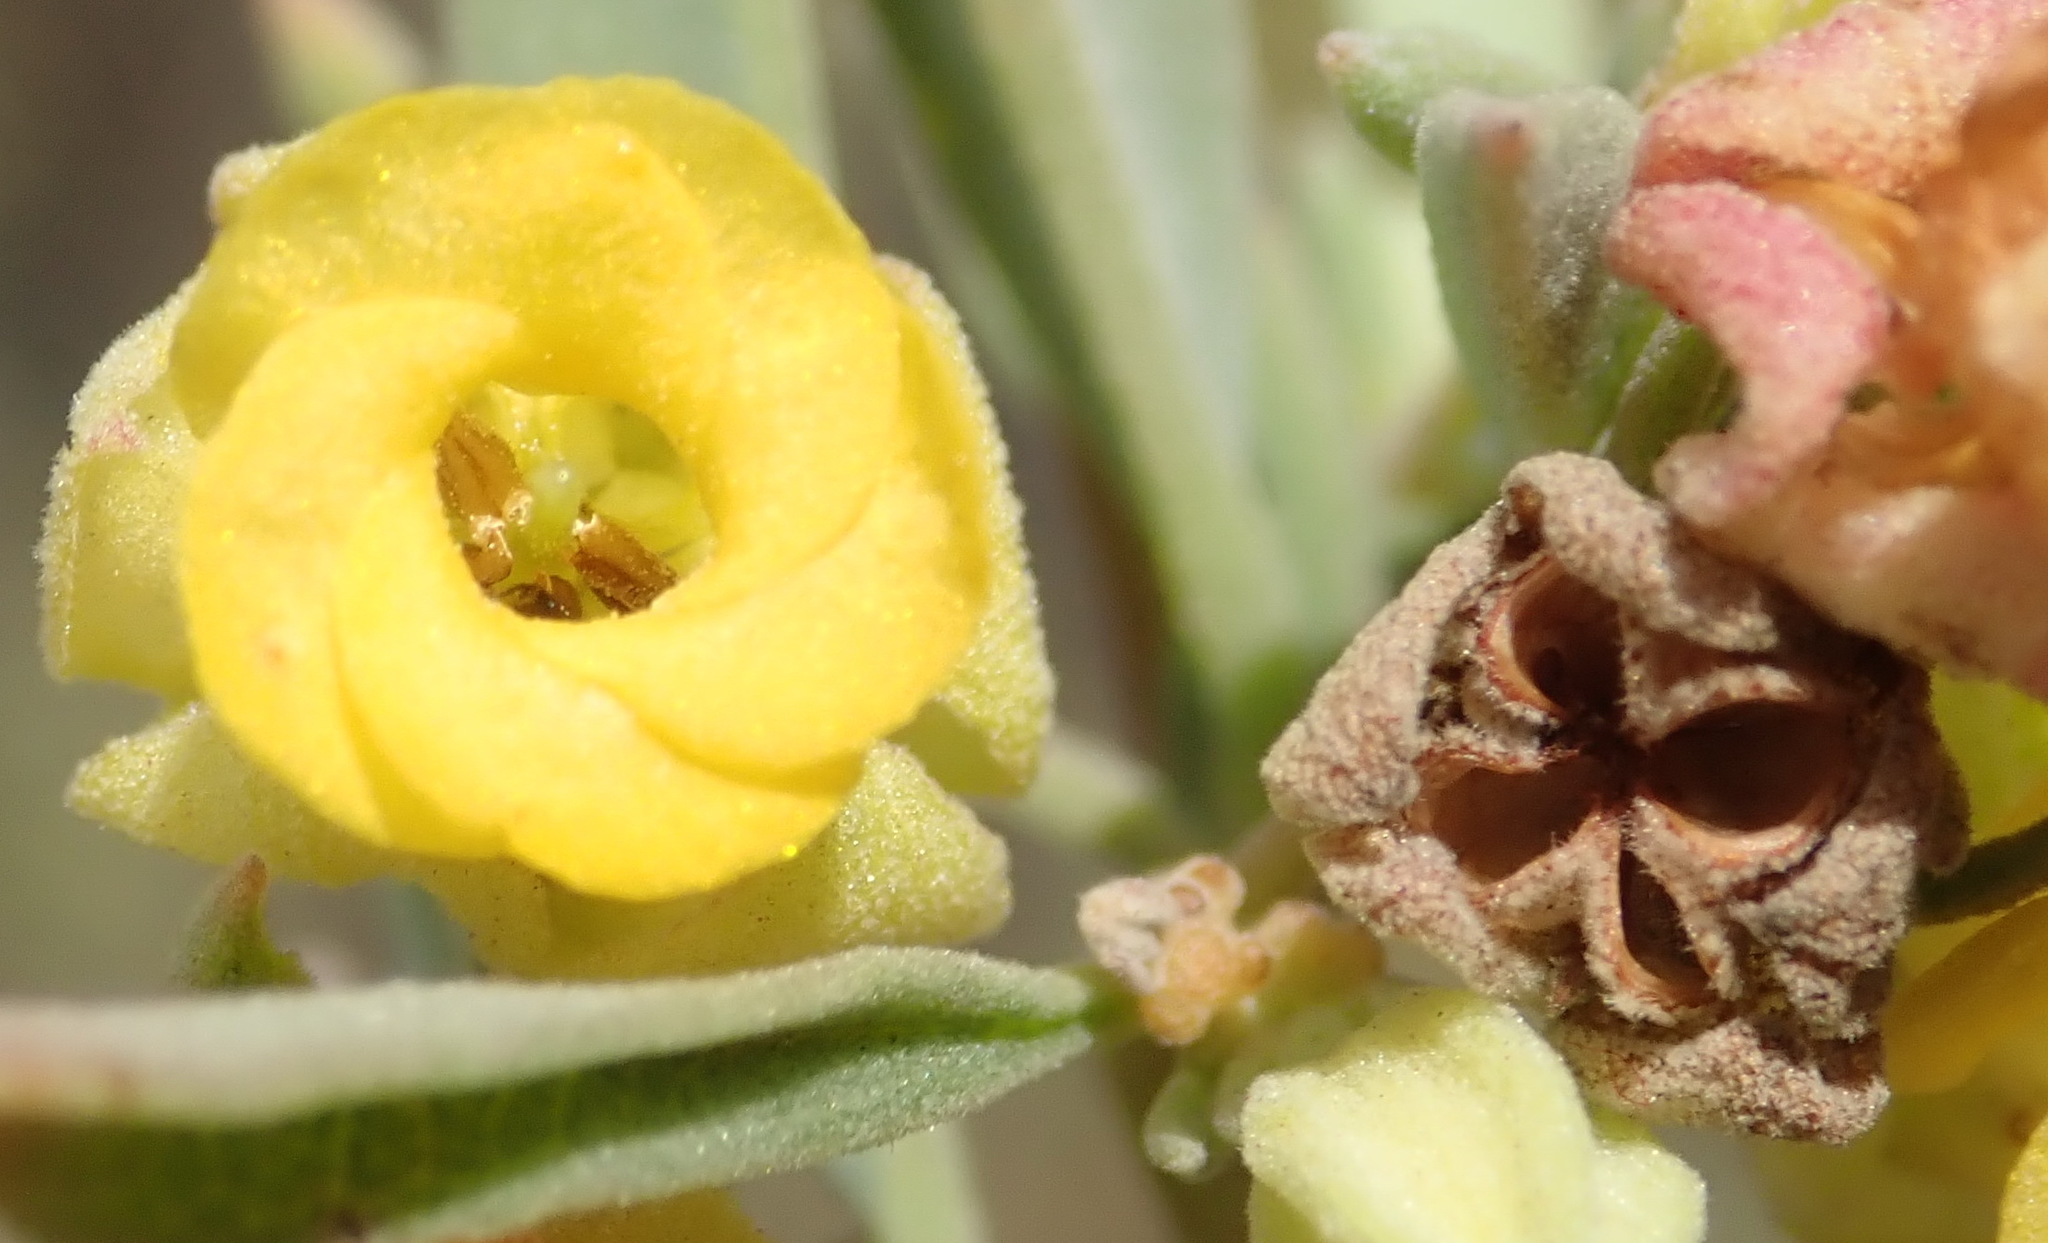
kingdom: Plantae
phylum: Tracheophyta
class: Magnoliopsida
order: Malvales
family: Malvaceae
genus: Hermannia
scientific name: Hermannia lavandulifolia
